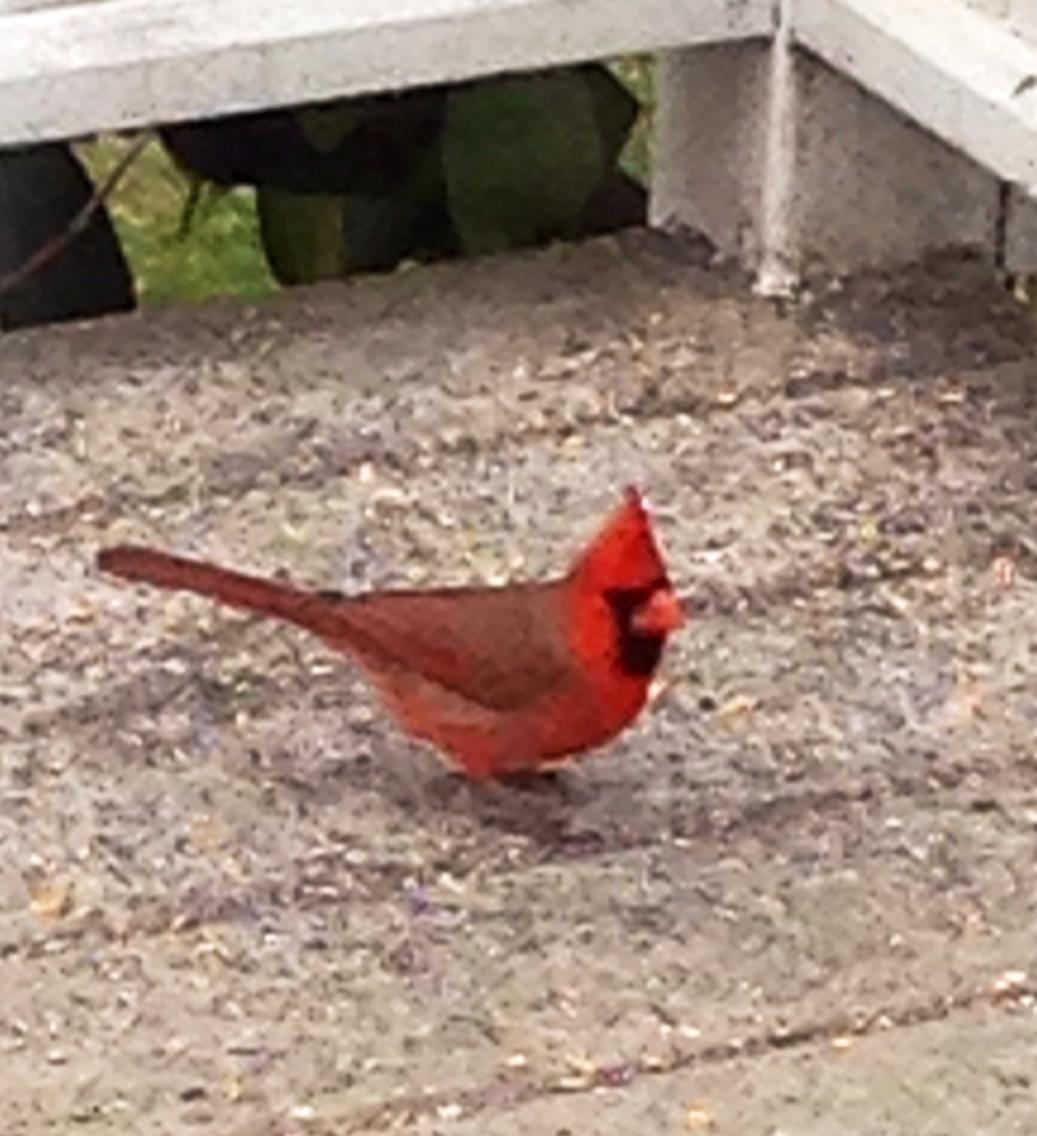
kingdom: Animalia
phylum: Chordata
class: Aves
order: Passeriformes
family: Cardinalidae
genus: Cardinalis
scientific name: Cardinalis cardinalis
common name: Northern cardinal
